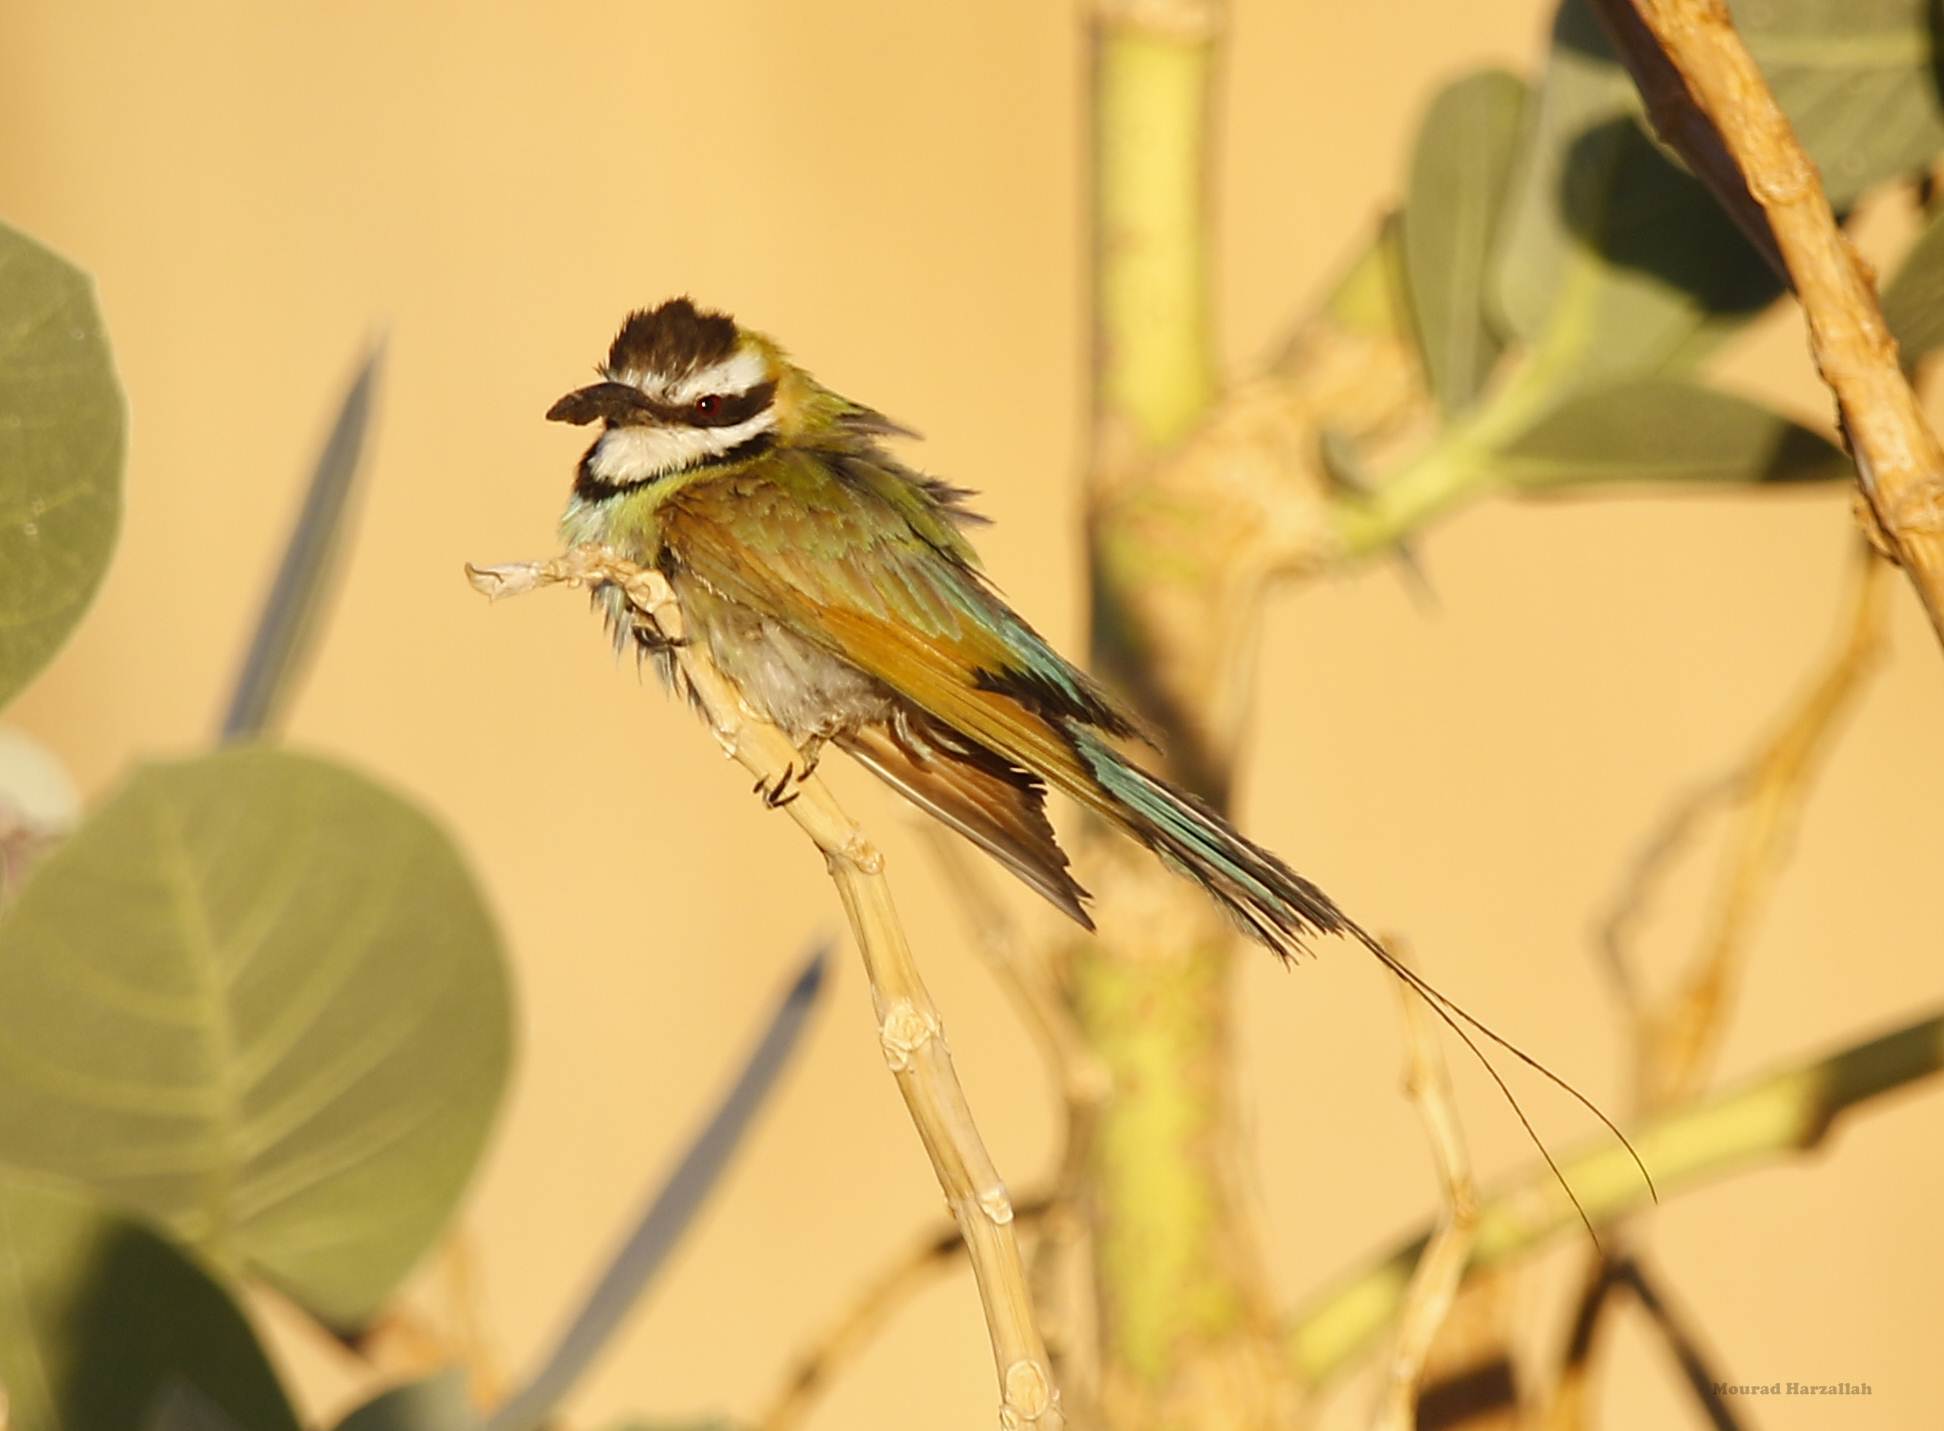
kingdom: Animalia
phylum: Chordata
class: Aves
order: Coraciiformes
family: Meropidae
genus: Merops
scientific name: Merops albicollis
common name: White-throated bee-eater
